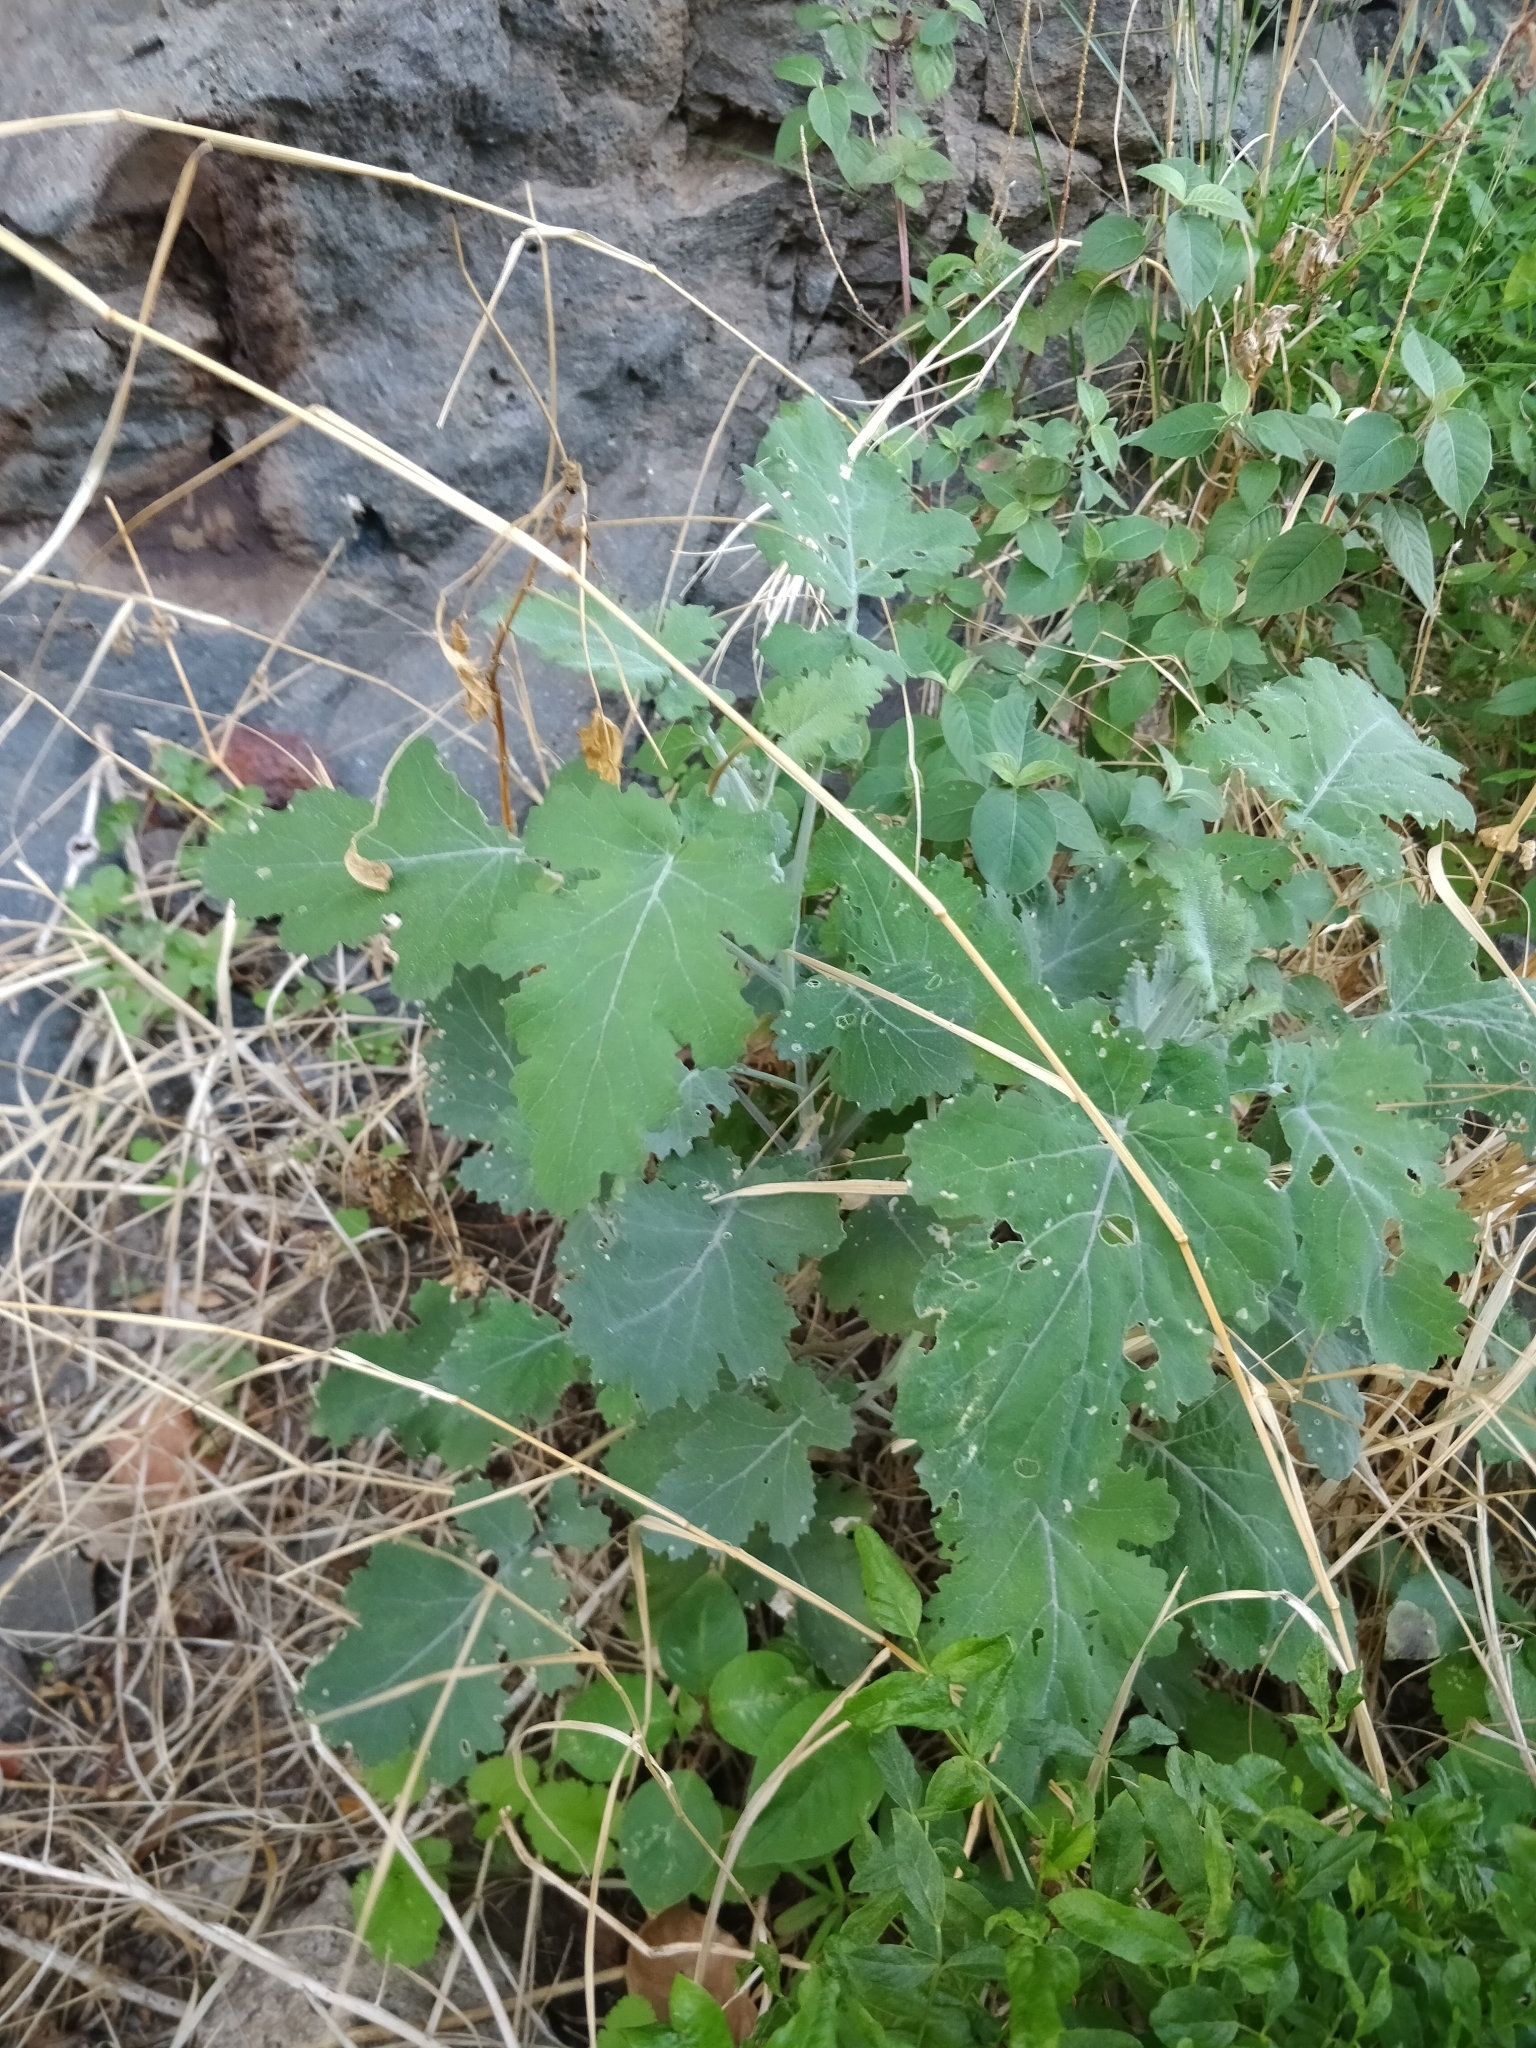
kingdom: Plantae
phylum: Tracheophyta
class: Magnoliopsida
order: Brassicales
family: Brassicaceae
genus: Crambe
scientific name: Crambe fruticosa
